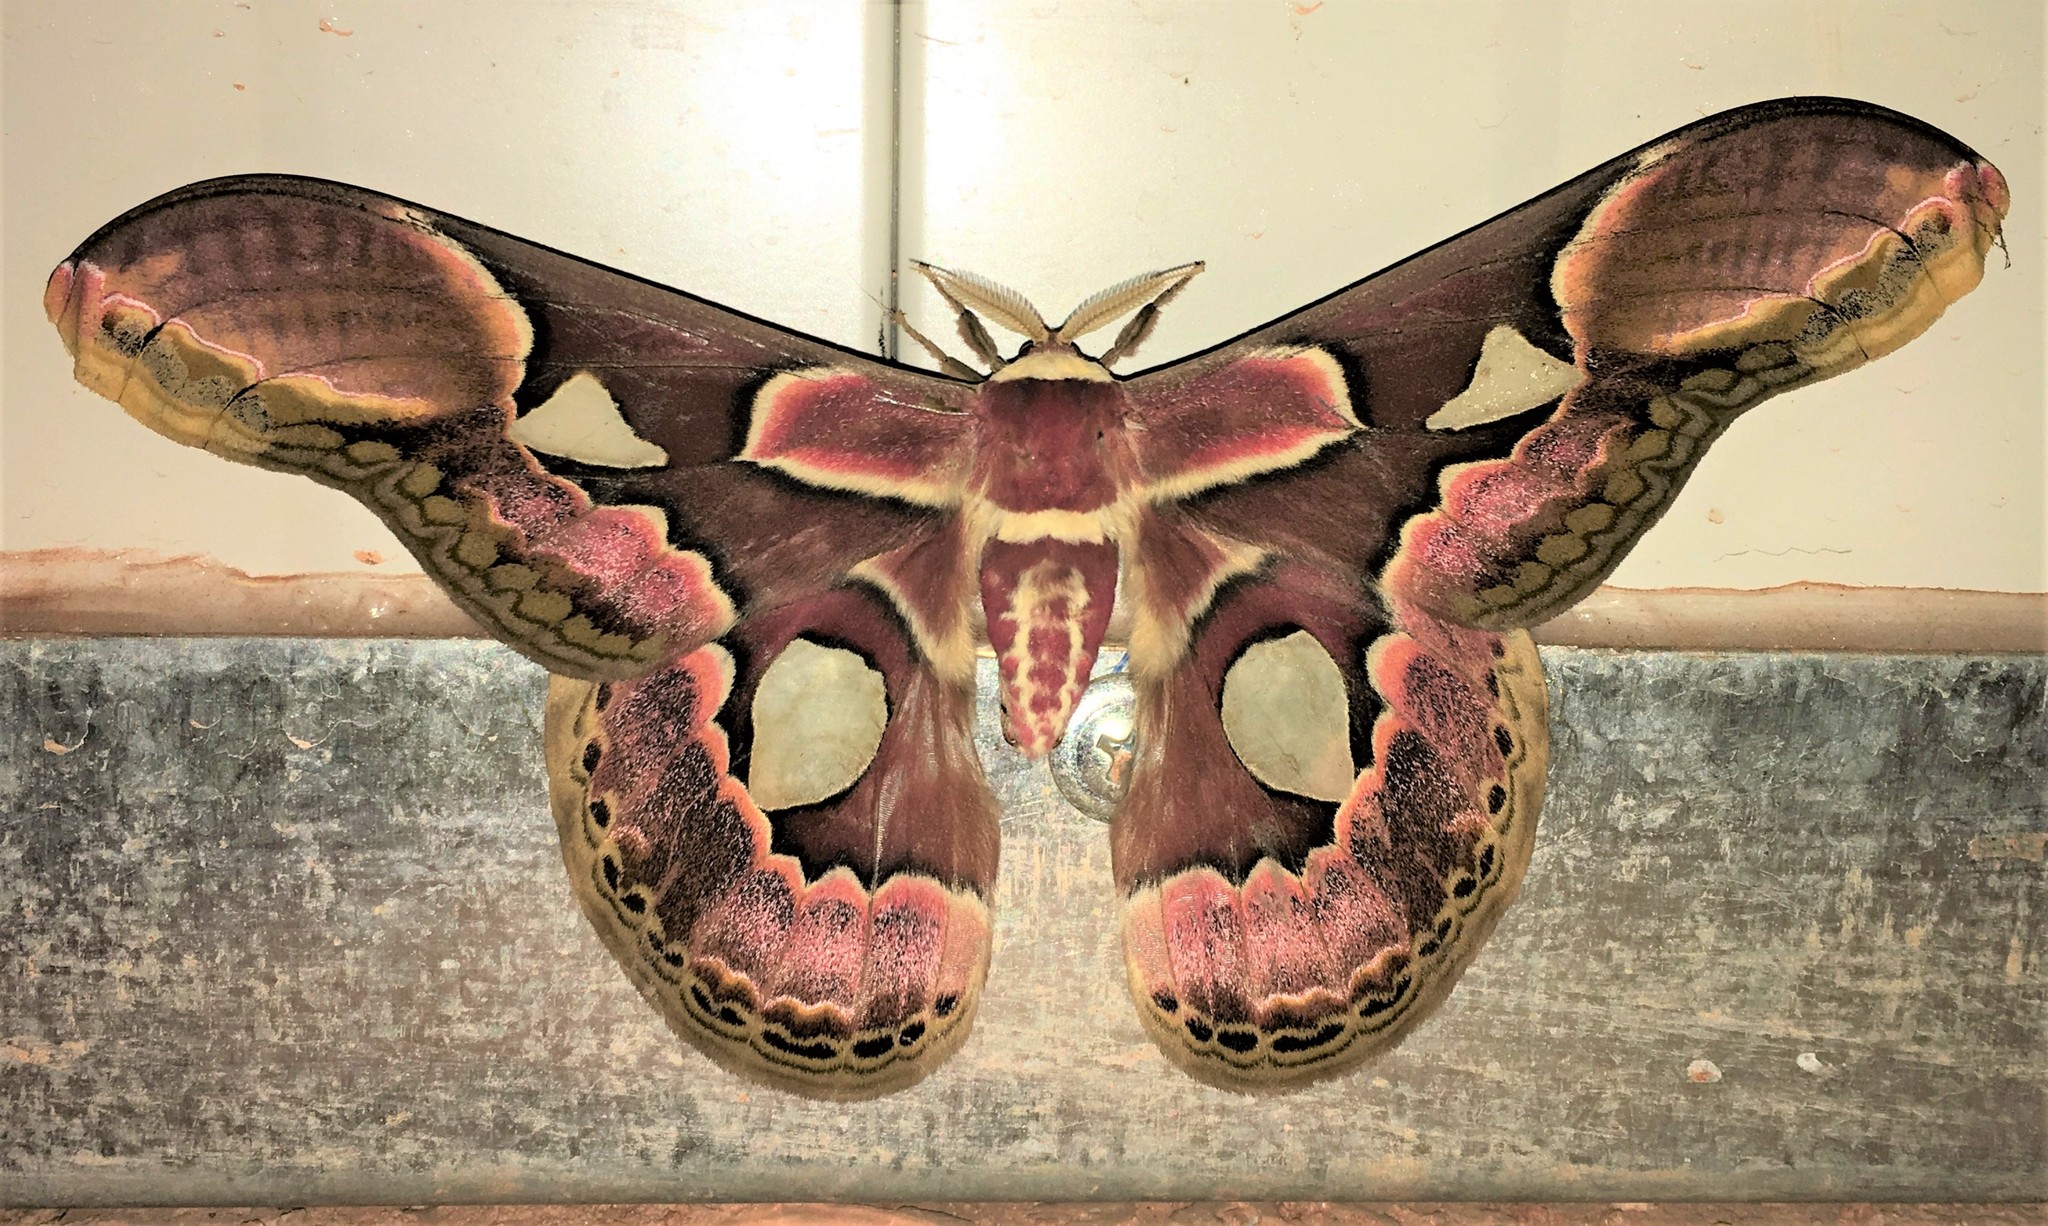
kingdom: Animalia
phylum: Arthropoda
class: Insecta
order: Lepidoptera
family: Saturniidae
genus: Rothschildia
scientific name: Rothschildia erycina
